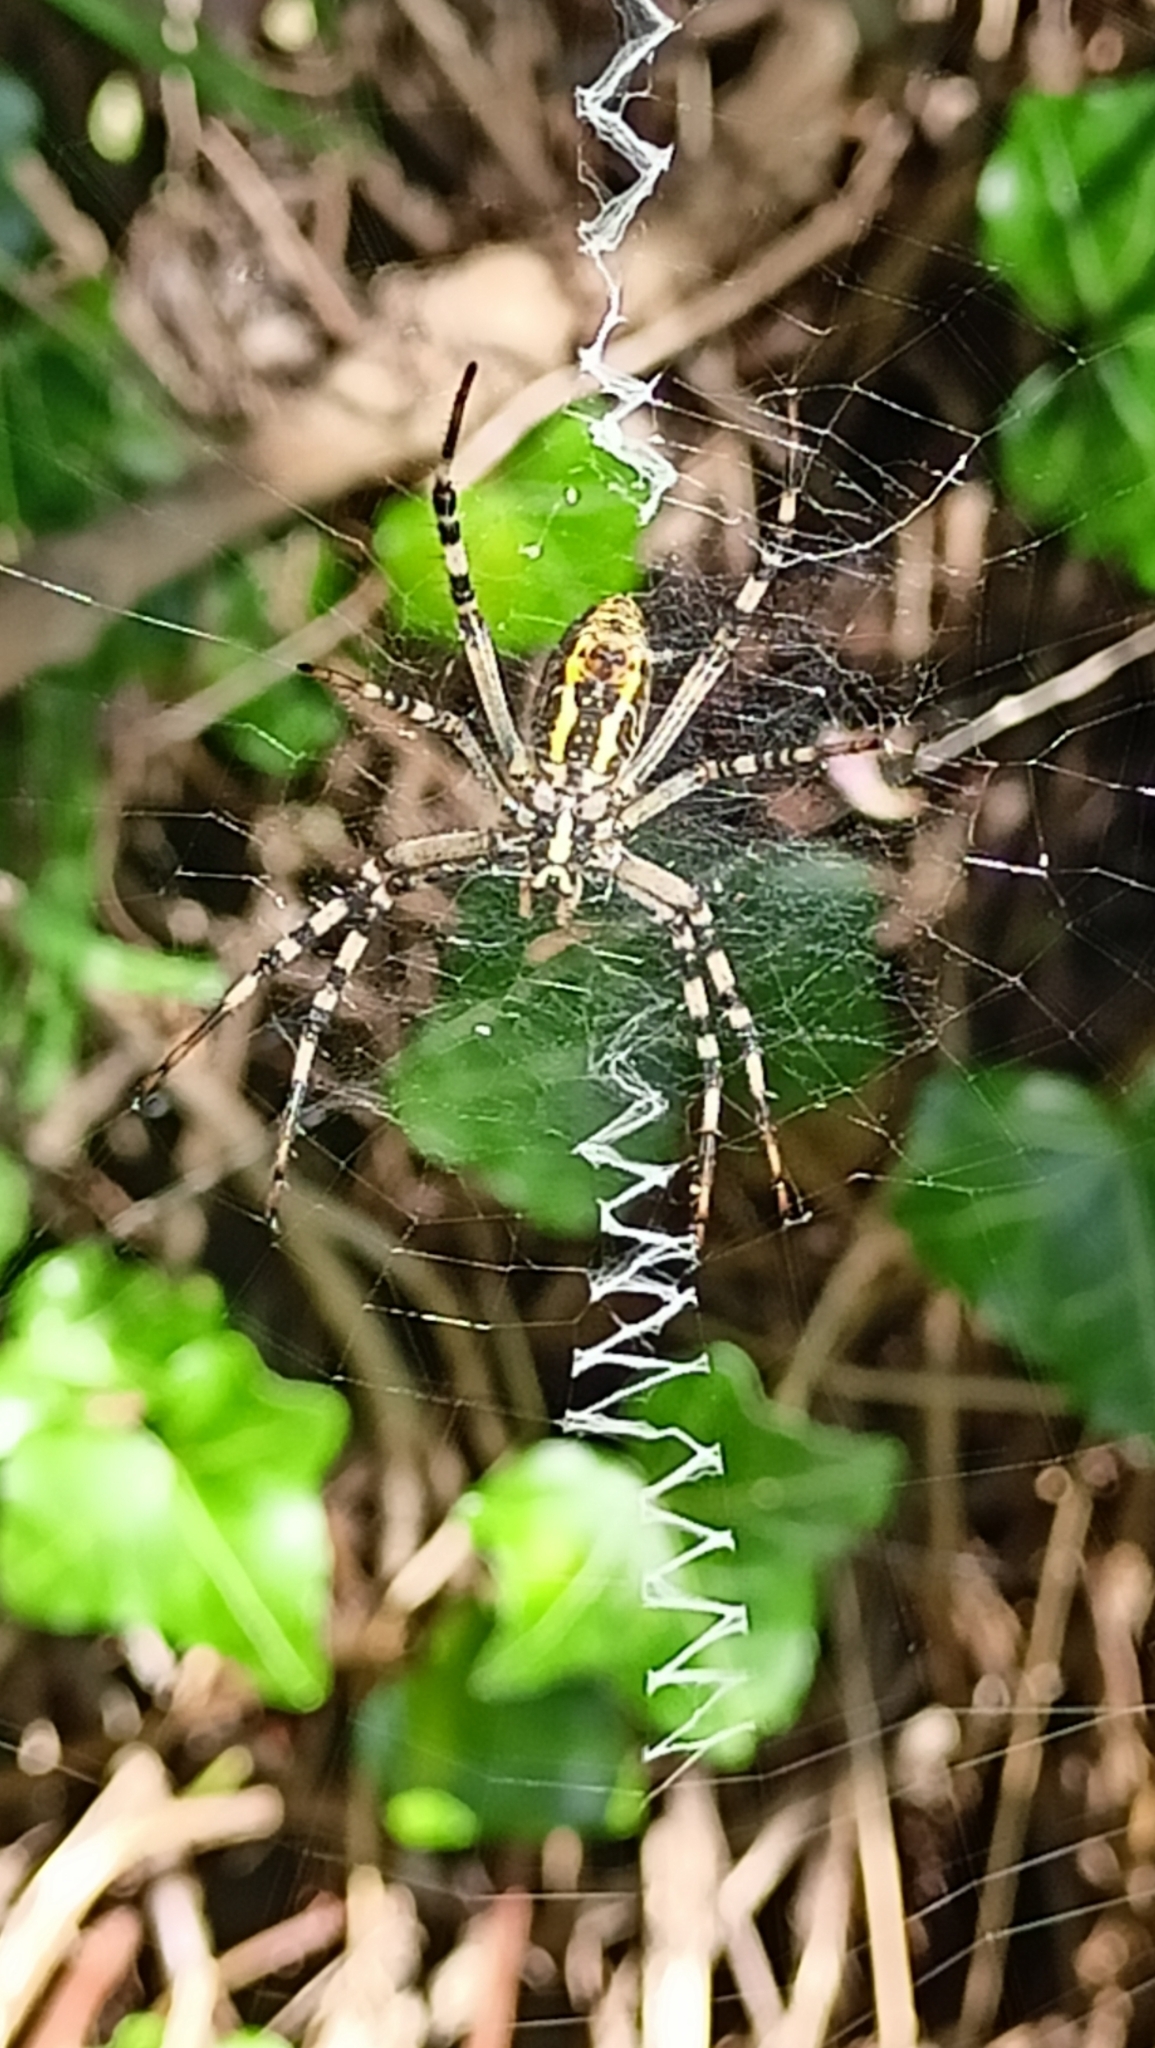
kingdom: Animalia
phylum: Arthropoda
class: Arachnida
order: Araneae
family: Araneidae
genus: Argiope
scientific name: Argiope bruennichi
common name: Wasp spider
